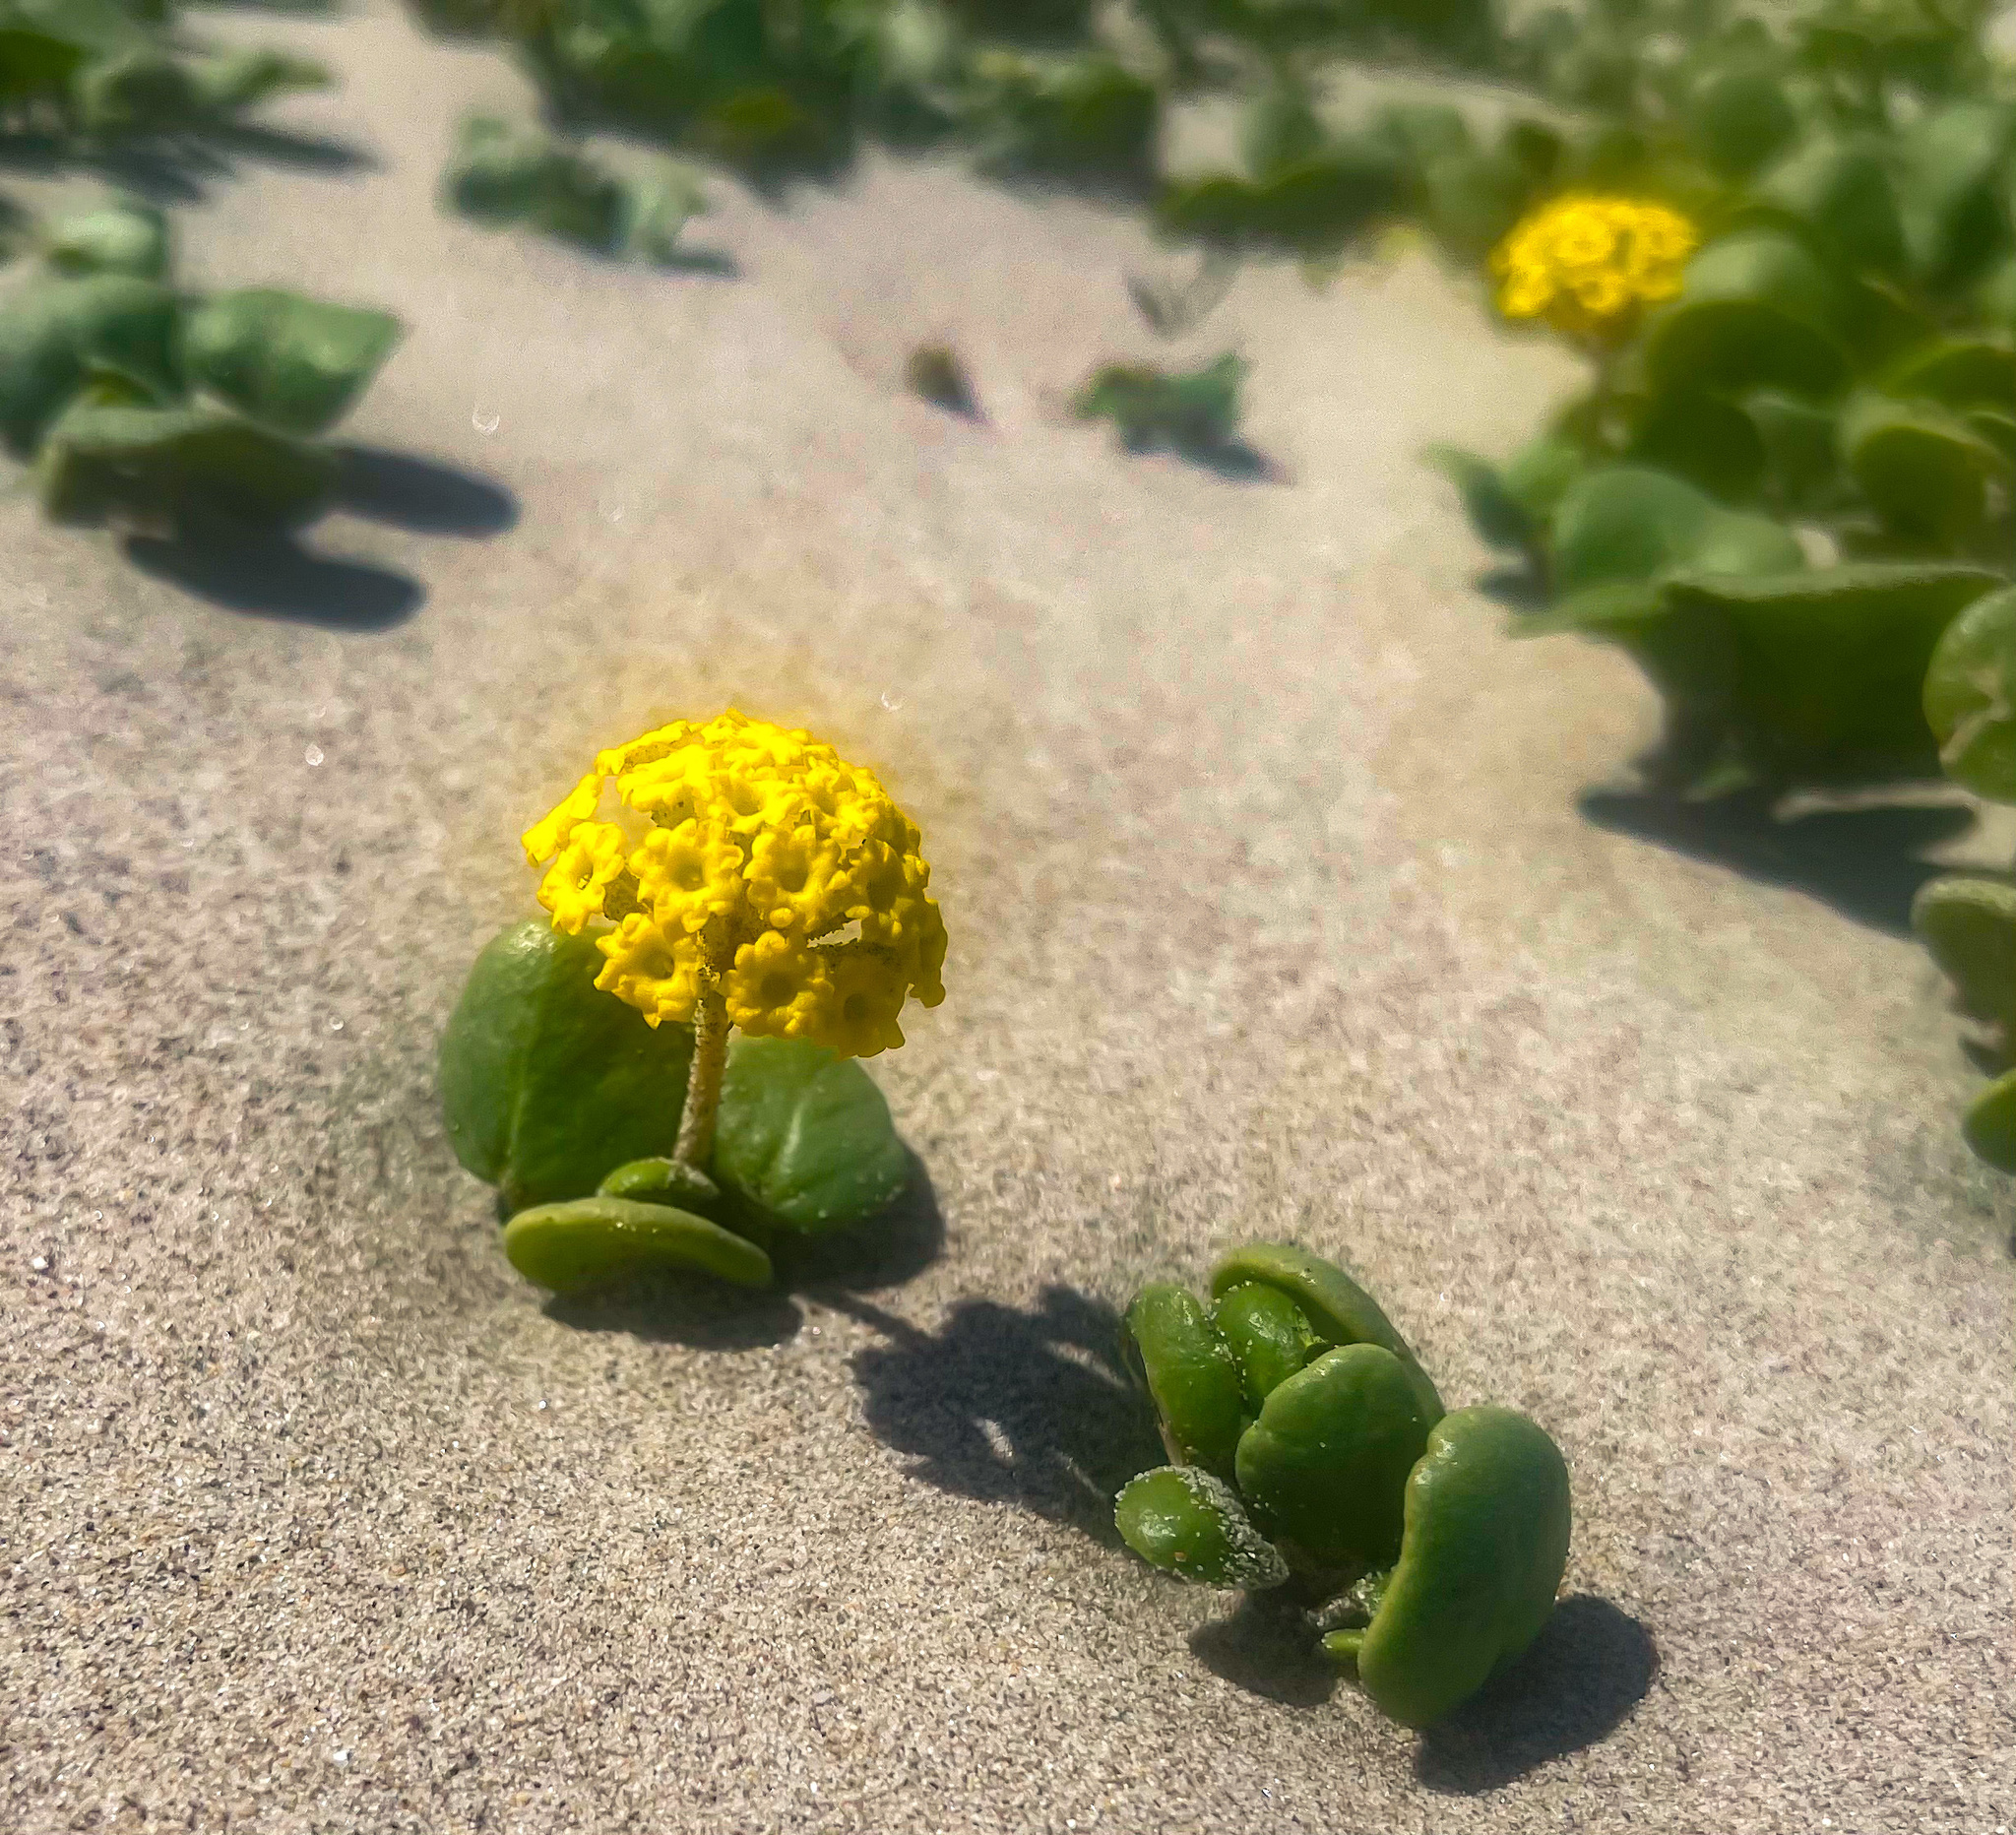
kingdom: Plantae
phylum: Tracheophyta
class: Magnoliopsida
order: Caryophyllales
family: Nyctaginaceae
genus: Abronia
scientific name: Abronia latifolia
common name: Yellow sand-verbena
